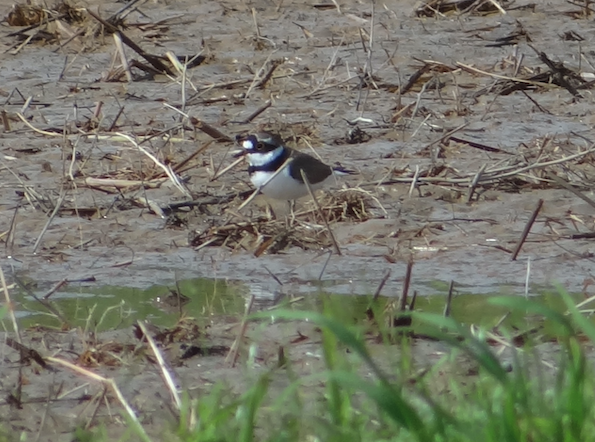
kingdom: Animalia
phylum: Chordata
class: Aves
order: Charadriiformes
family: Charadriidae
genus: Charadrius
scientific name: Charadrius dubius
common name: Little ringed plover
